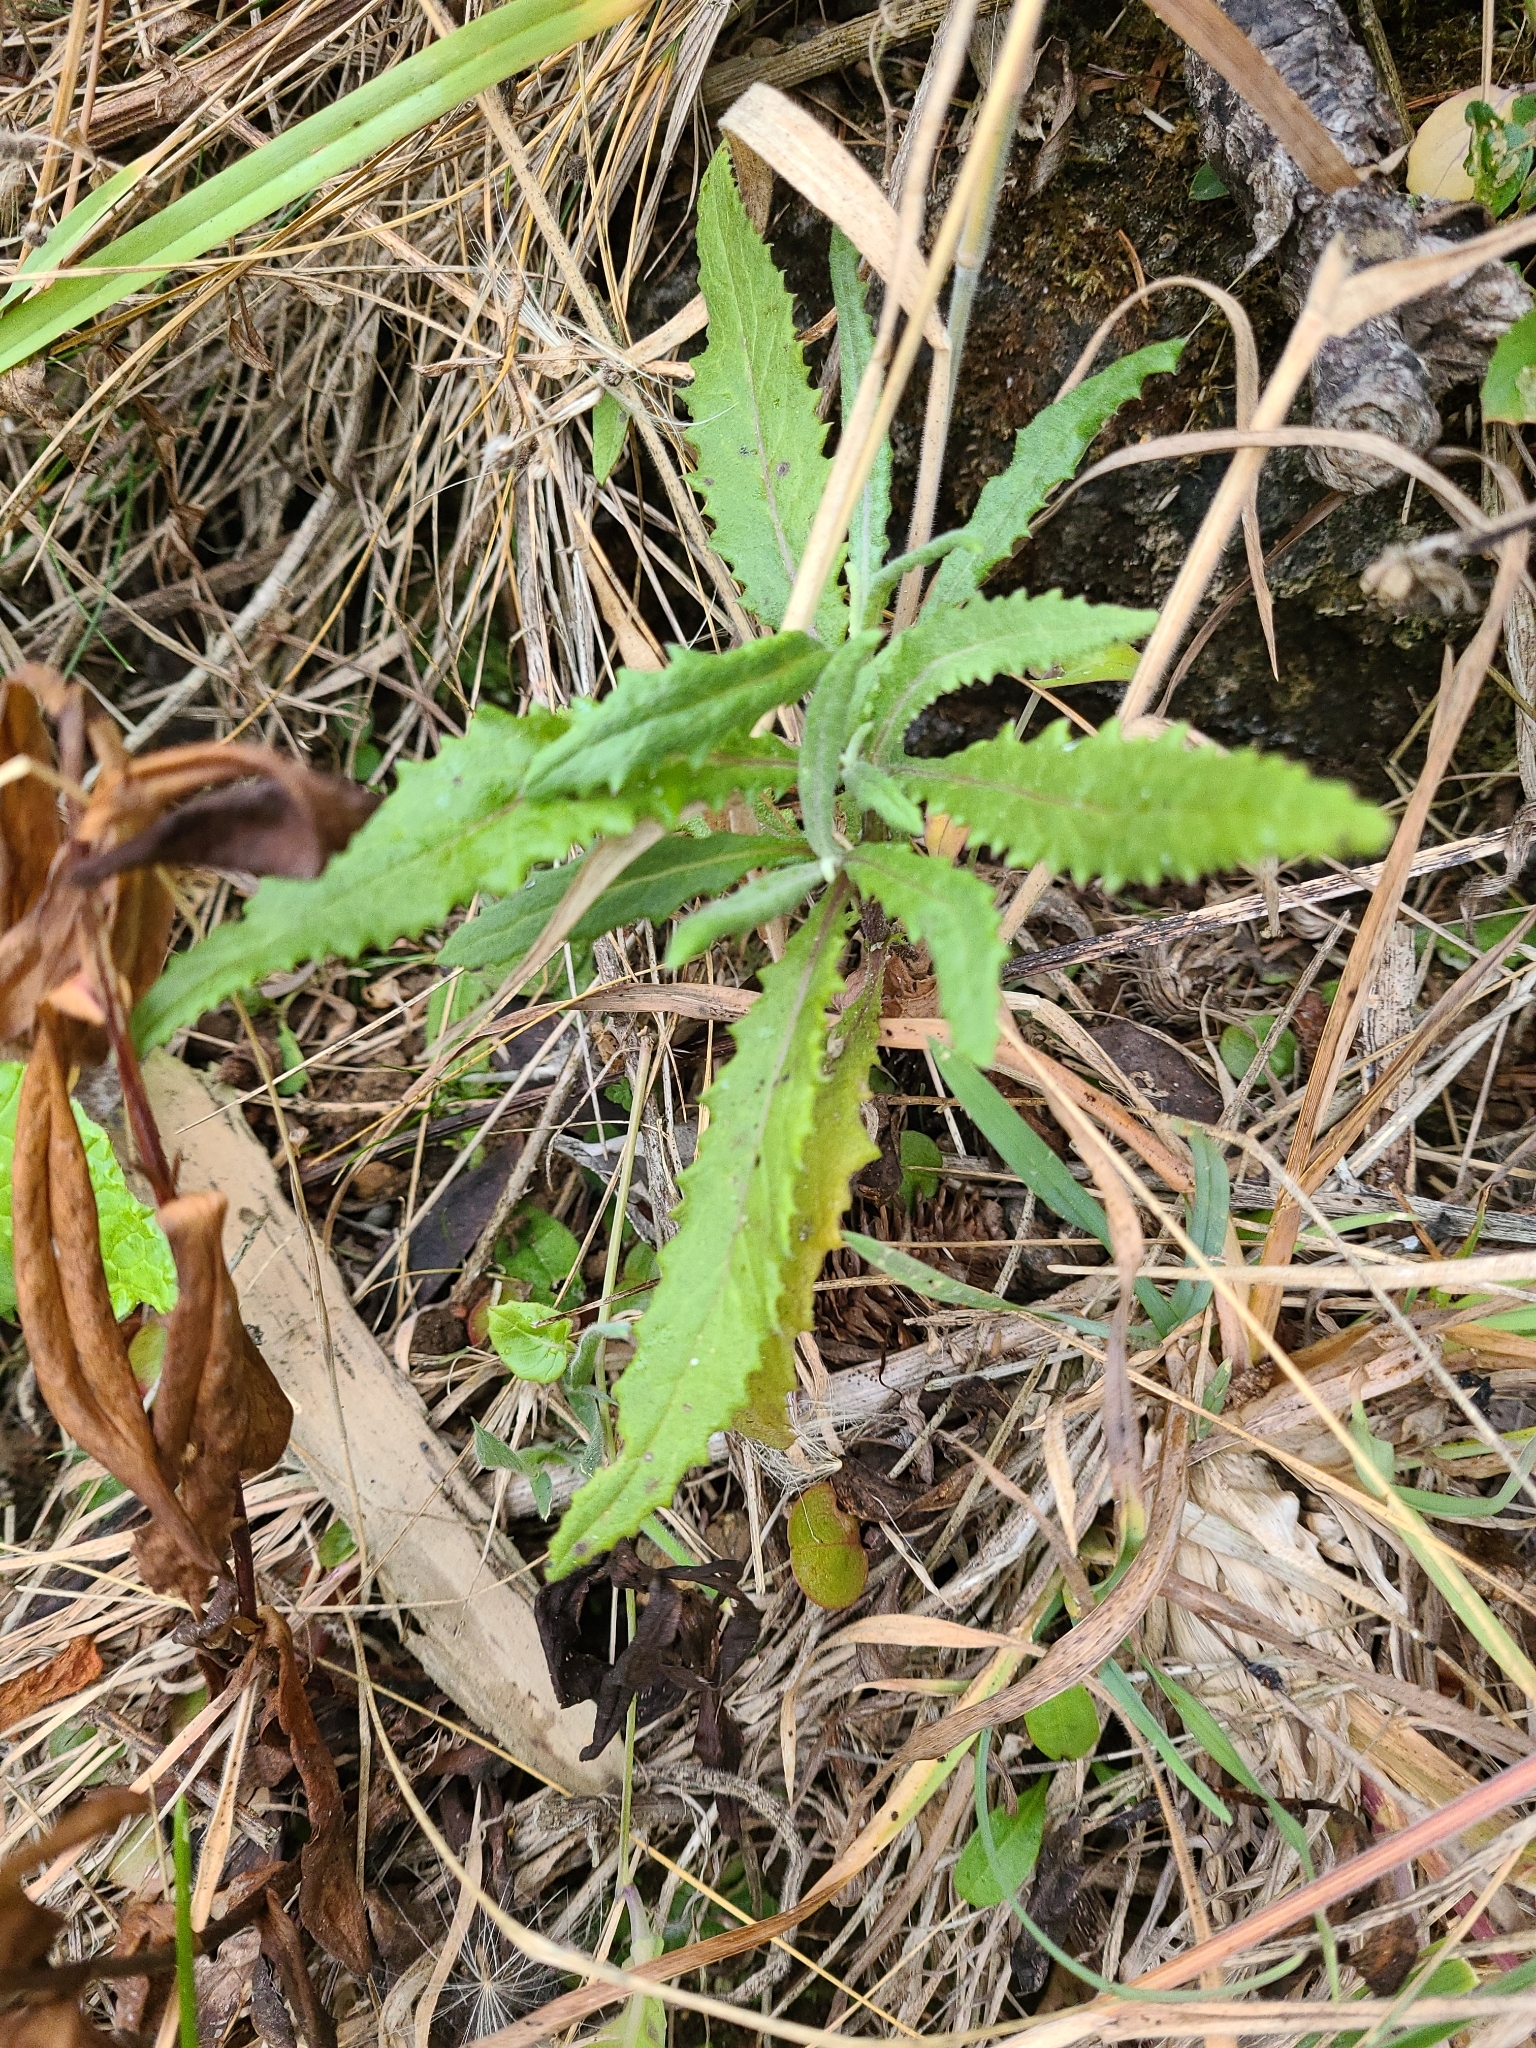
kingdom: Plantae
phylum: Tracheophyta
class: Magnoliopsida
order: Asterales
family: Asteraceae
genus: Senecio
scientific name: Senecio minimus
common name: Toothed fireweed
